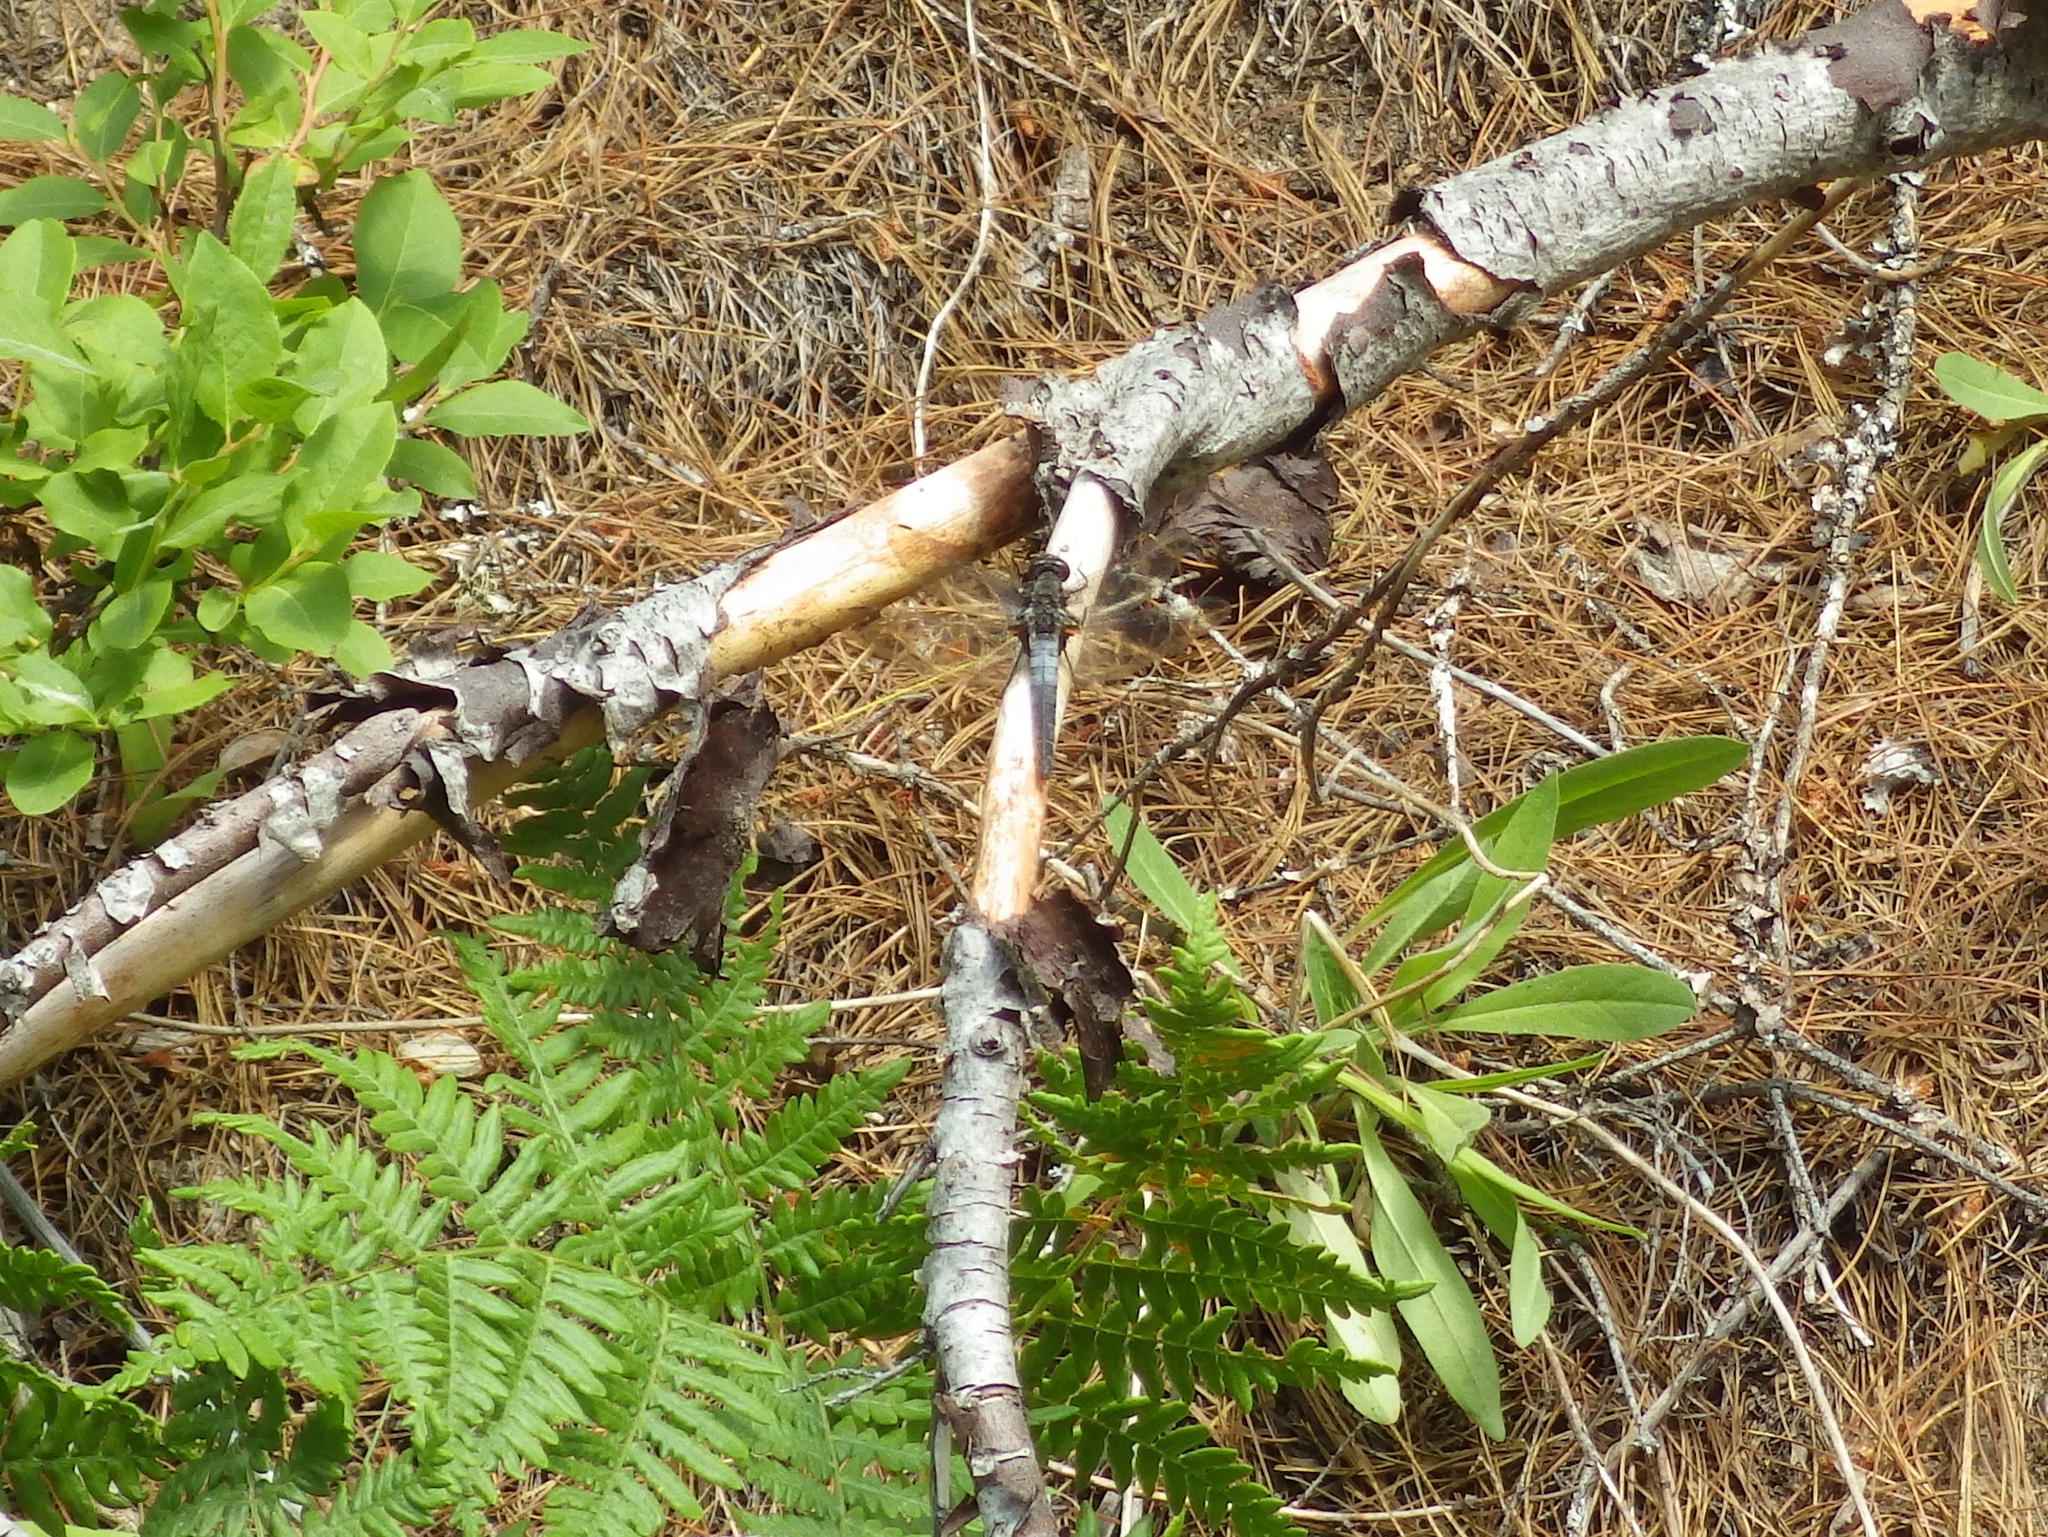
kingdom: Animalia
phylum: Arthropoda
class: Insecta
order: Odonata
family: Libellulidae
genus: Ladona
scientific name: Ladona julia
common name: Chalk-fronted corporal
